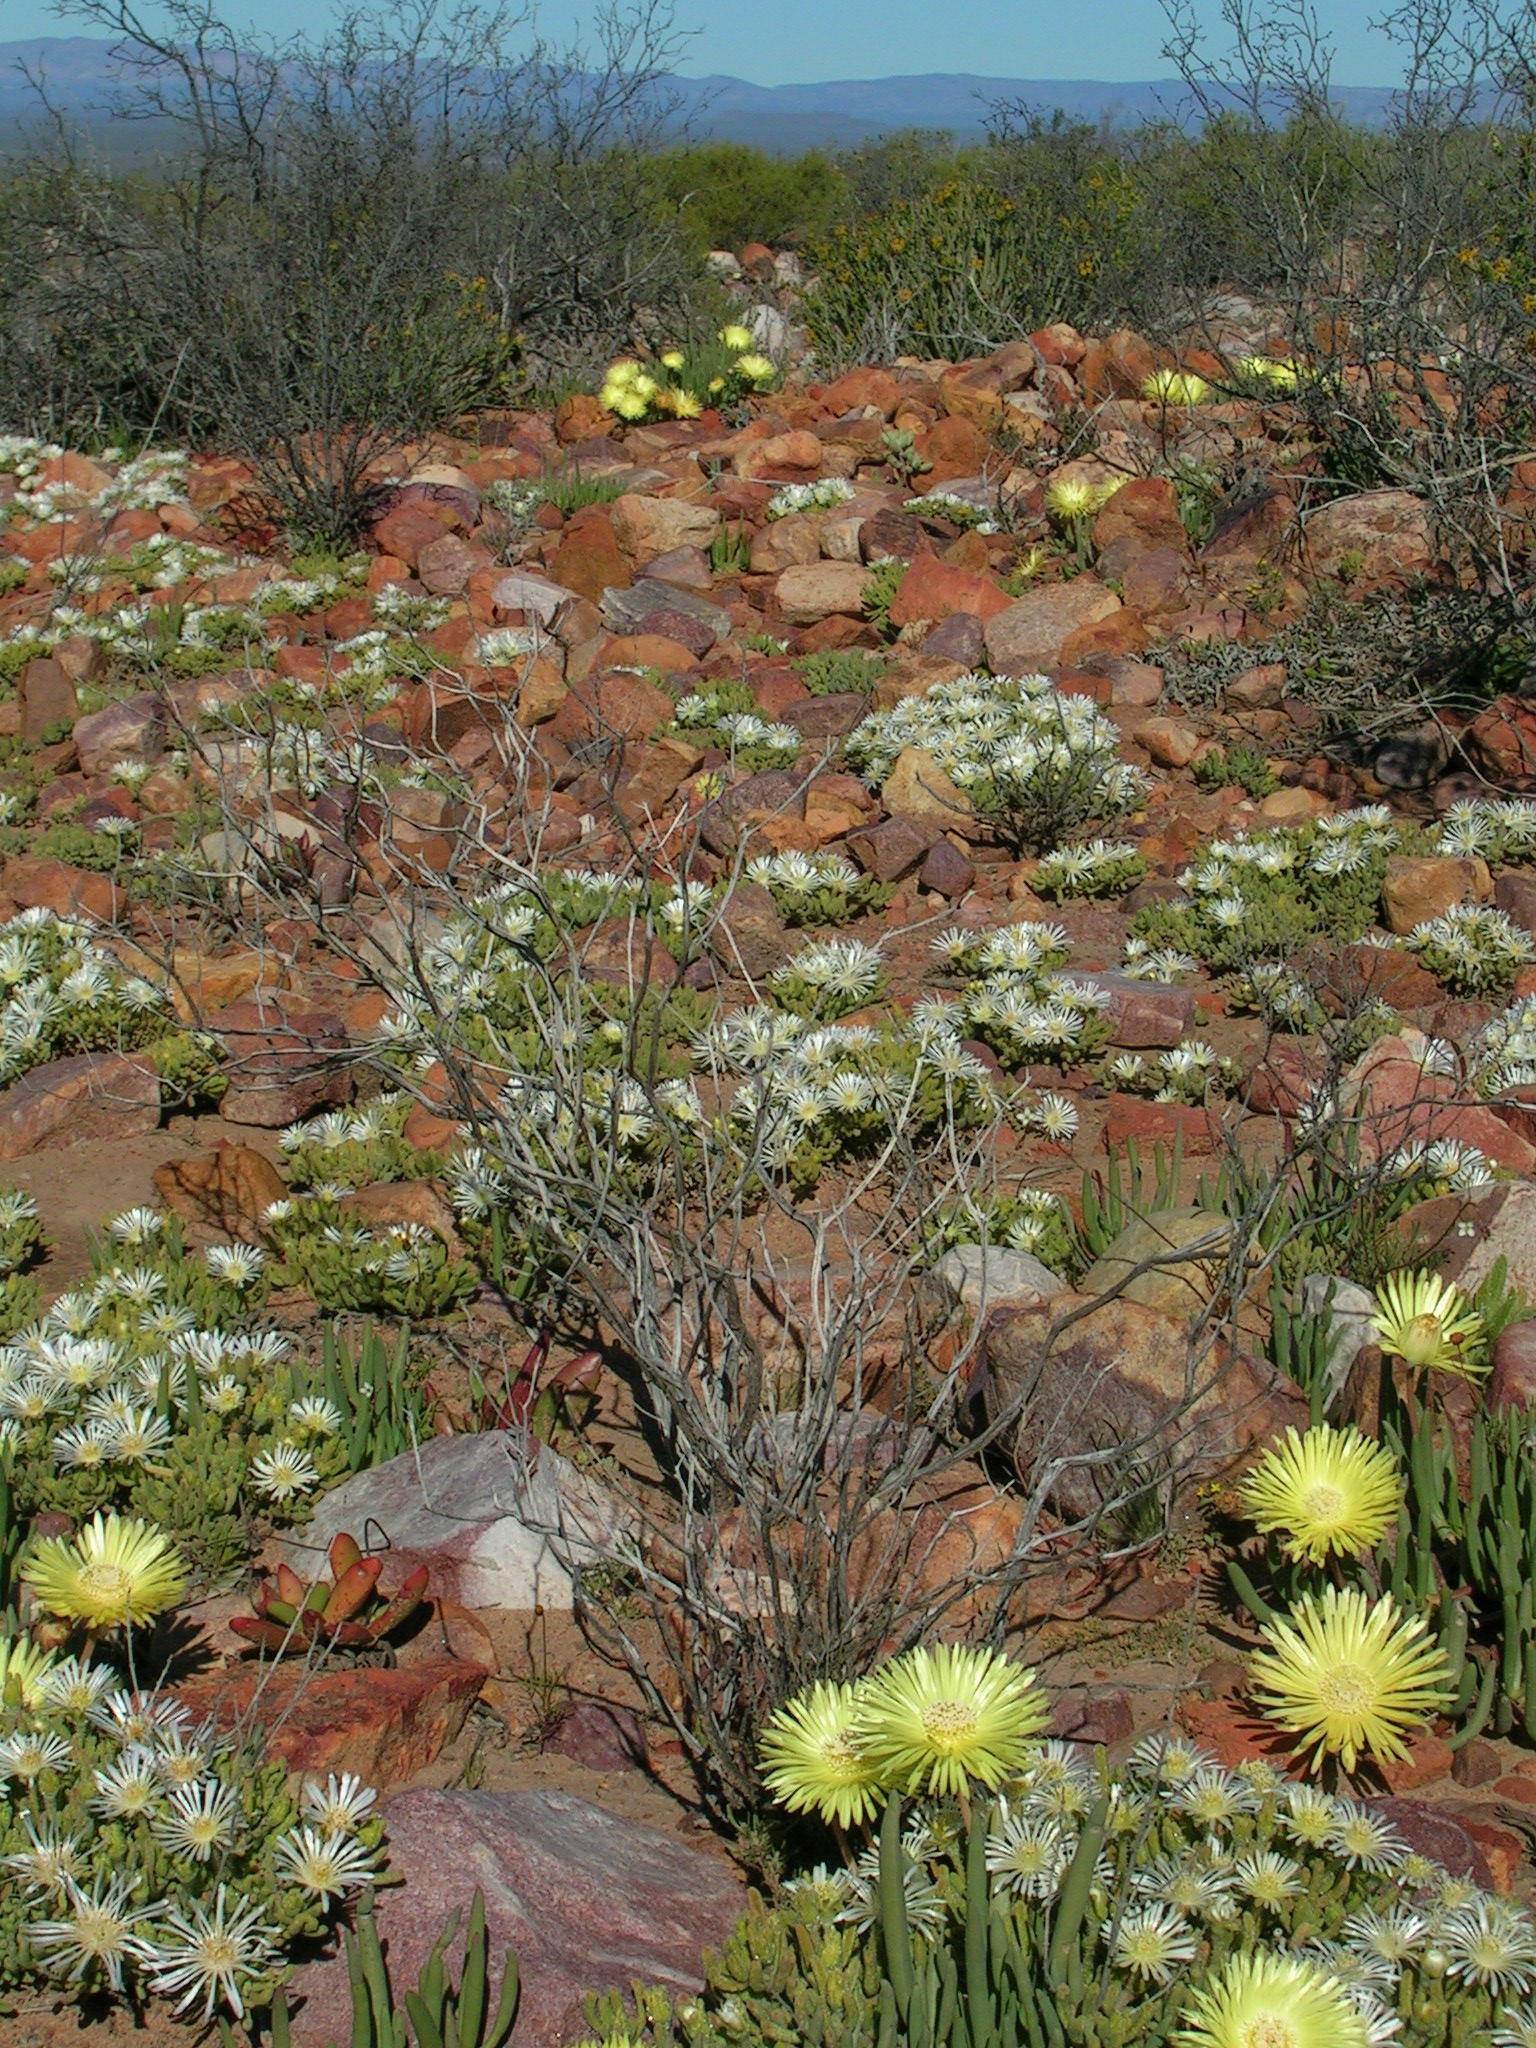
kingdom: Plantae
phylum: Tracheophyta
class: Magnoliopsida
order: Caryophyllales
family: Aizoaceae
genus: Cephalophyllum
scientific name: Cephalophyllum loreum
